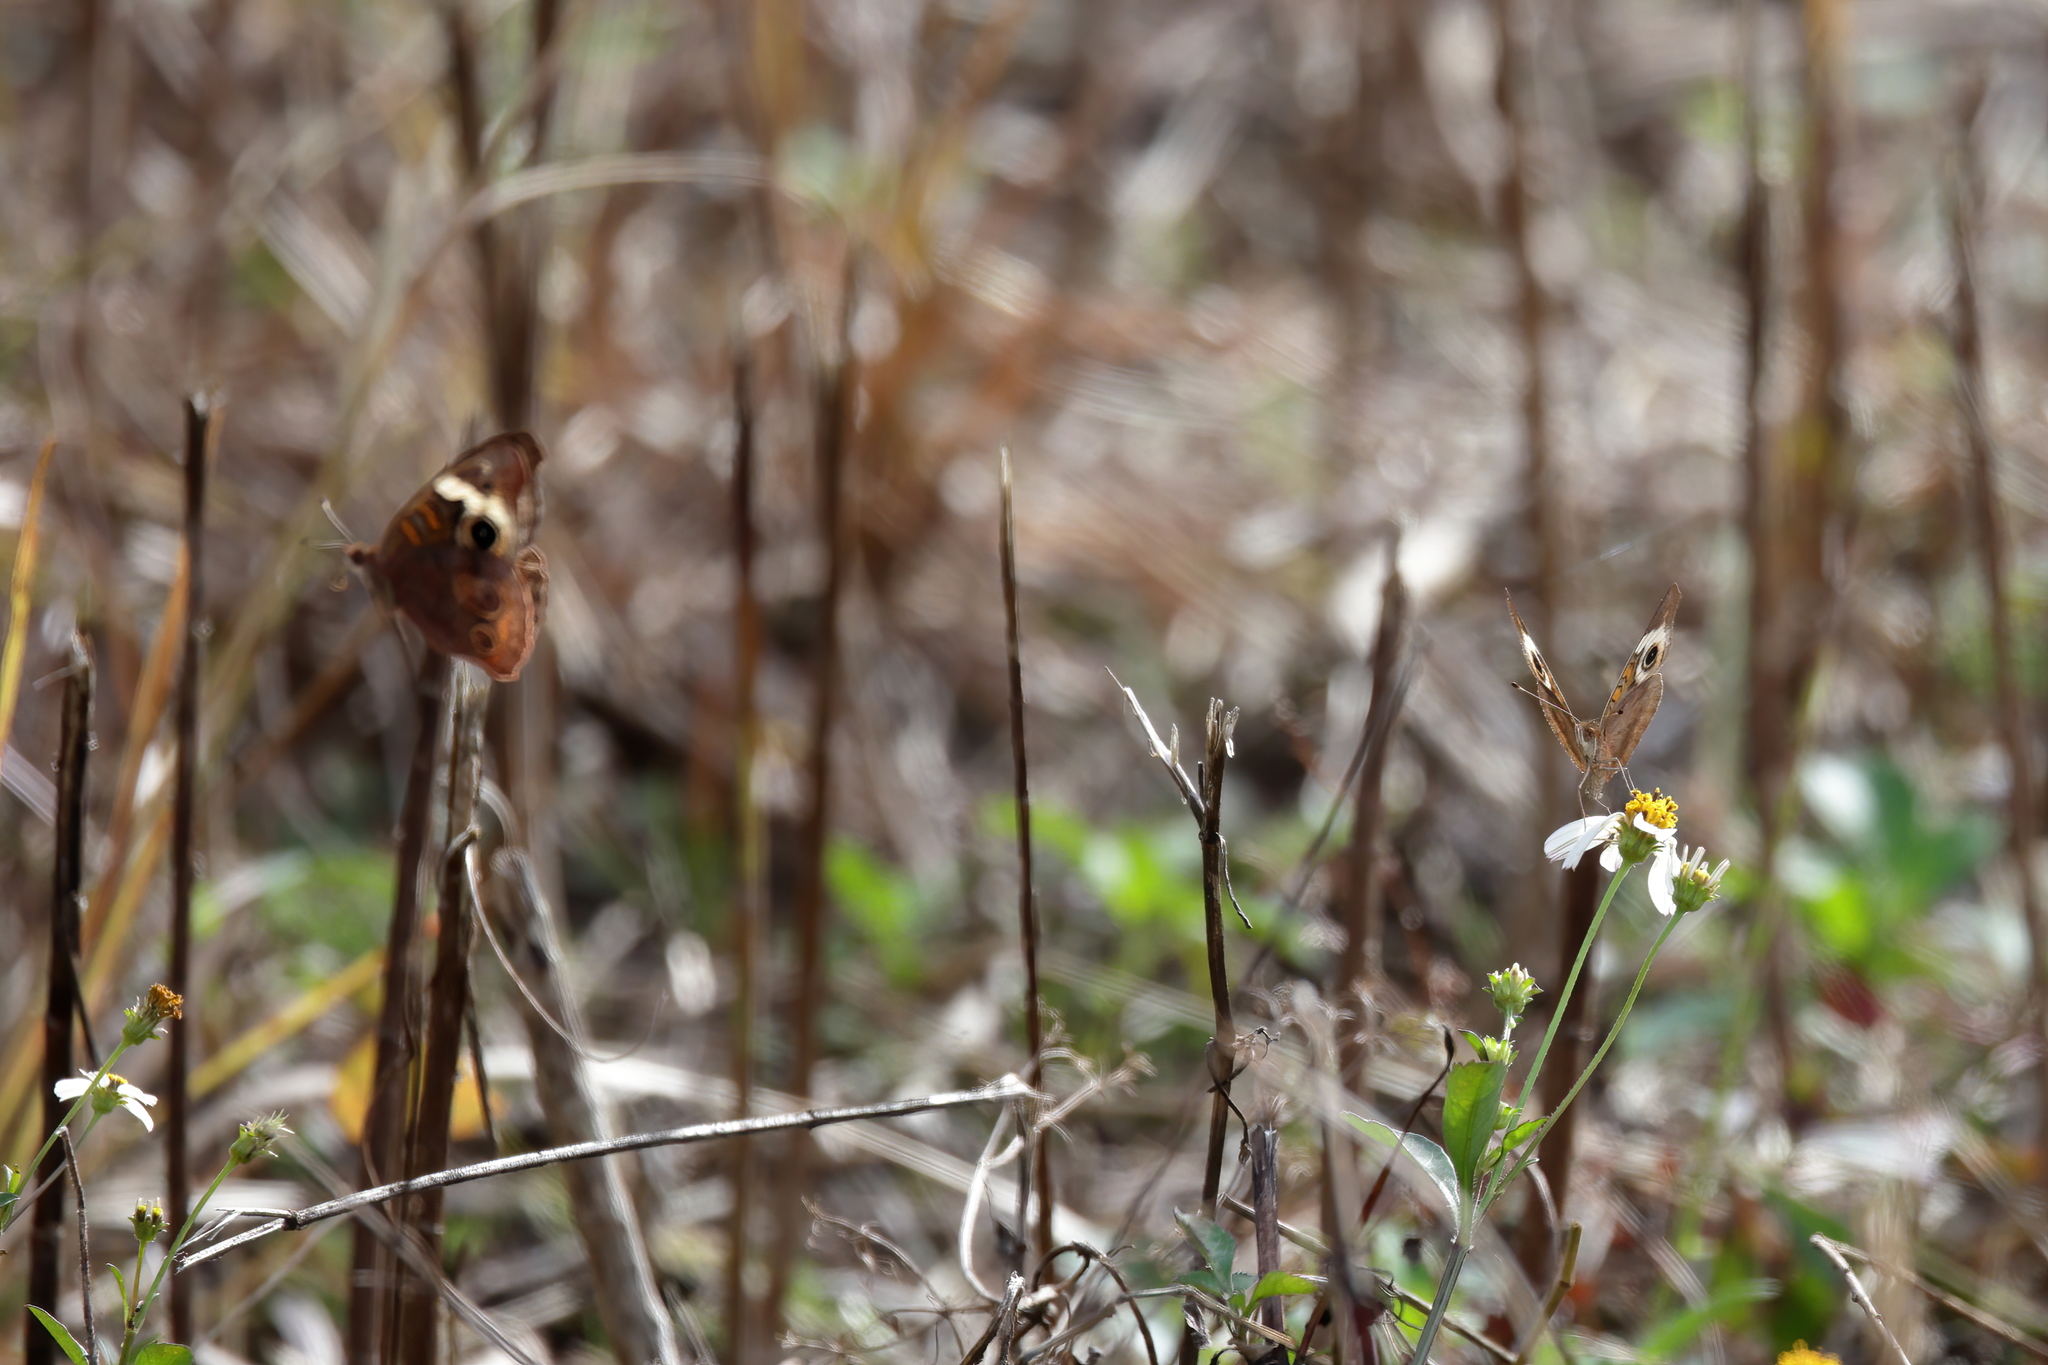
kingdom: Animalia
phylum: Arthropoda
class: Insecta
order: Lepidoptera
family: Nymphalidae
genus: Junonia
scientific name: Junonia coenia
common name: Common buckeye
